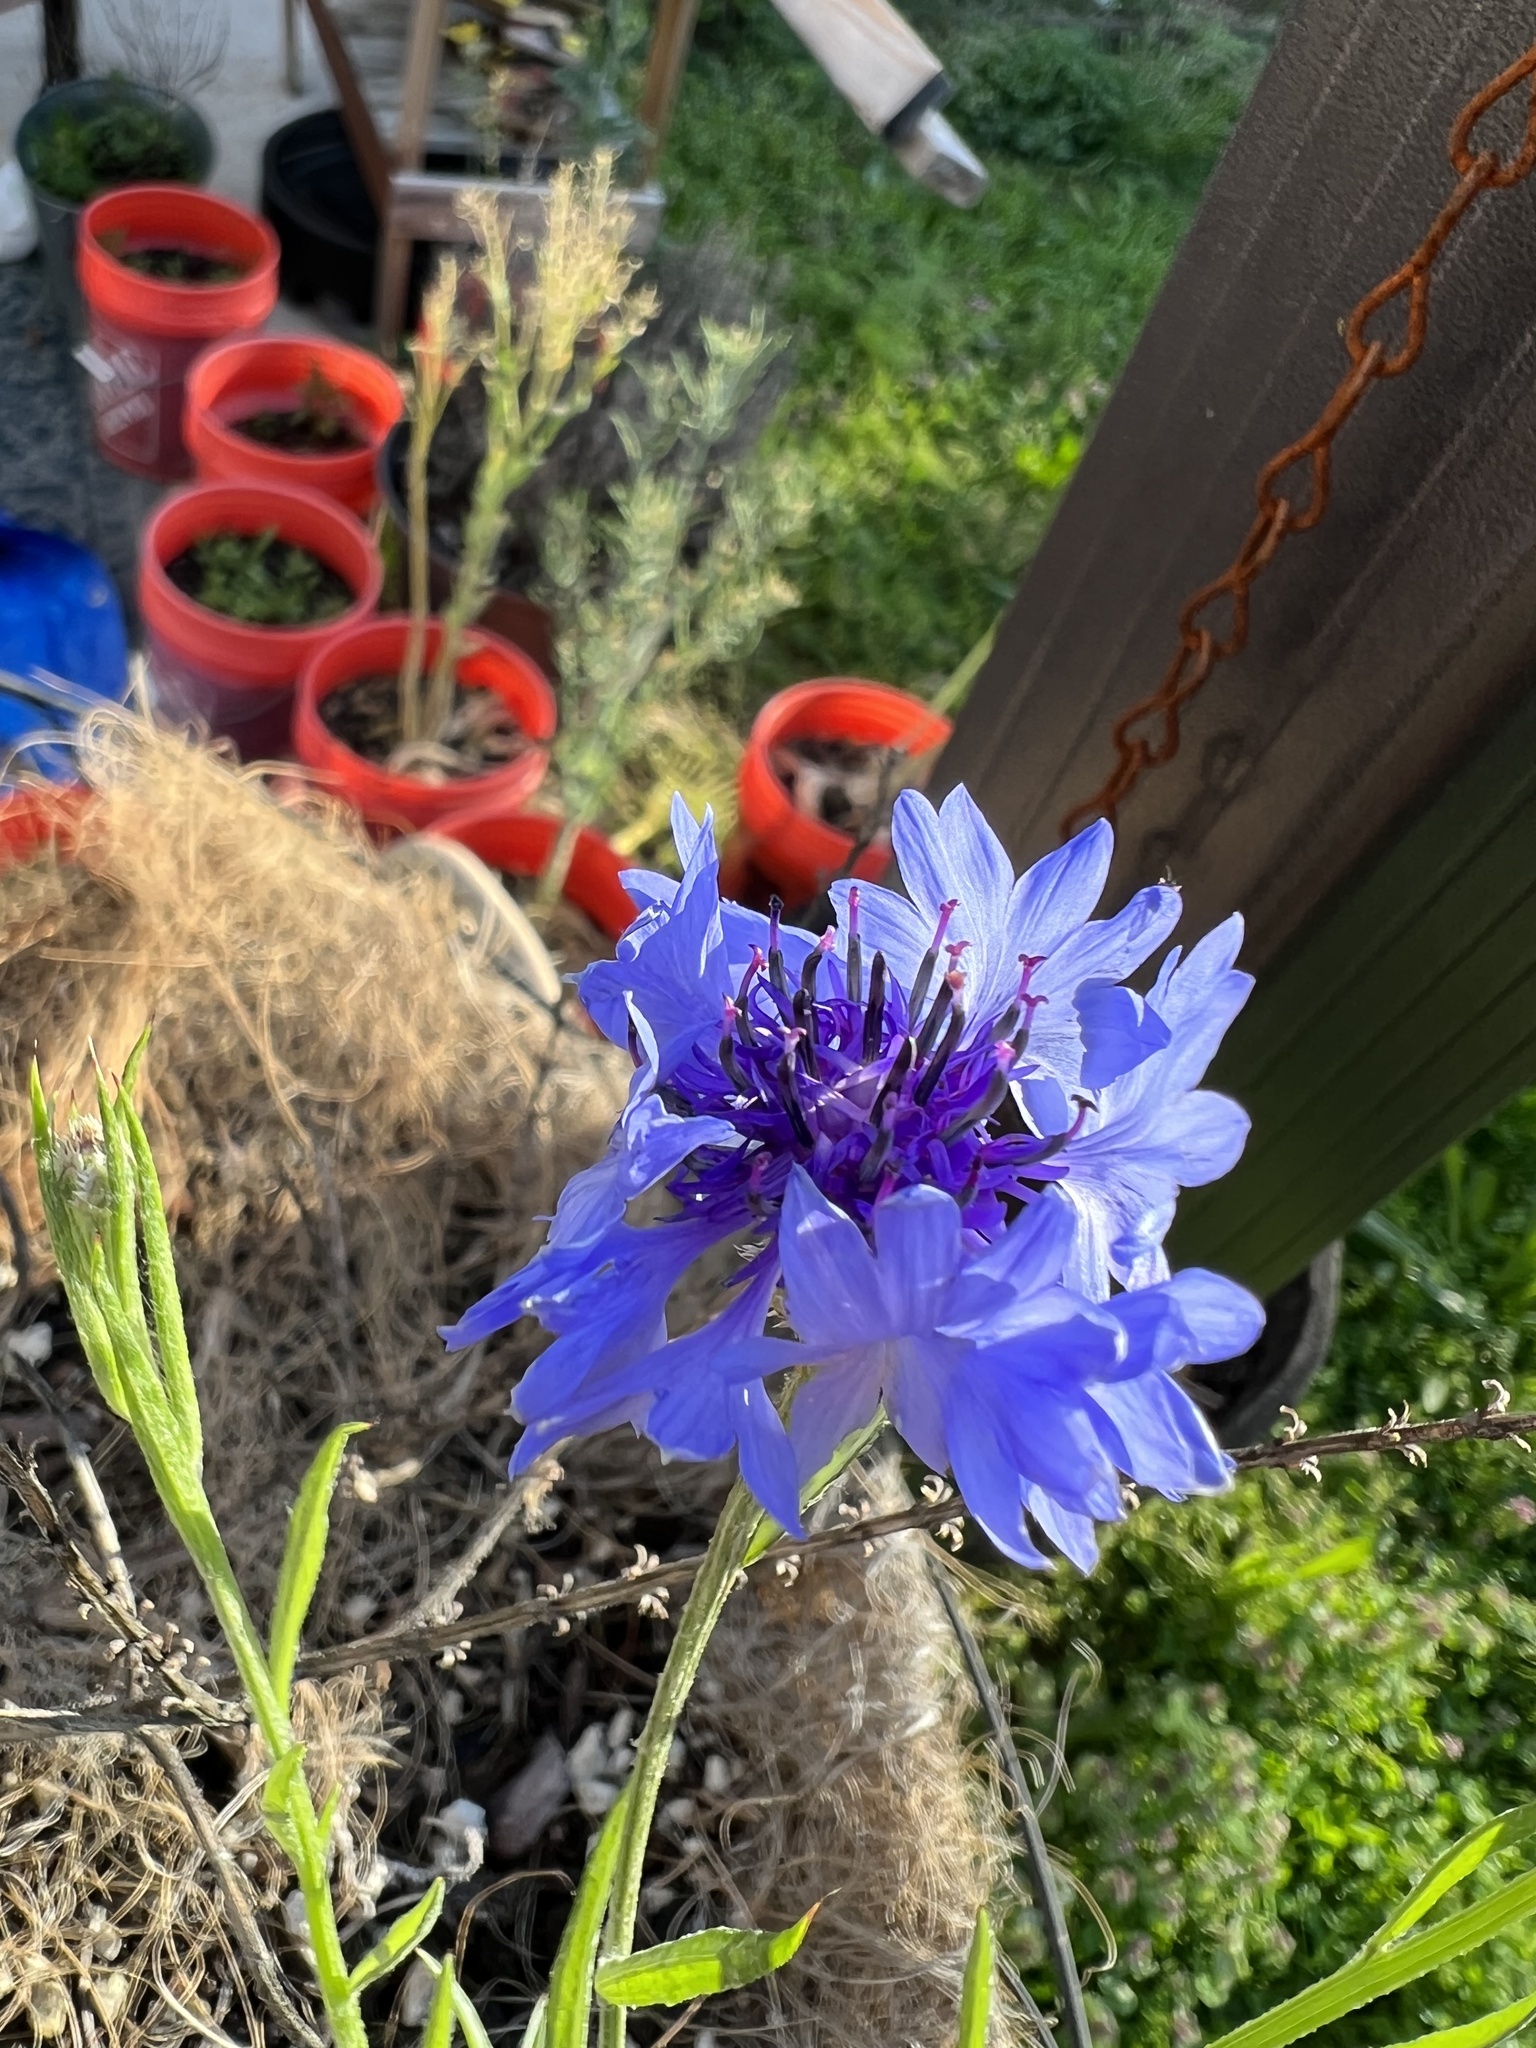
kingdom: Plantae
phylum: Tracheophyta
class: Magnoliopsida
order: Asterales
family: Asteraceae
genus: Centaurea
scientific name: Centaurea cyanus
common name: Cornflower
